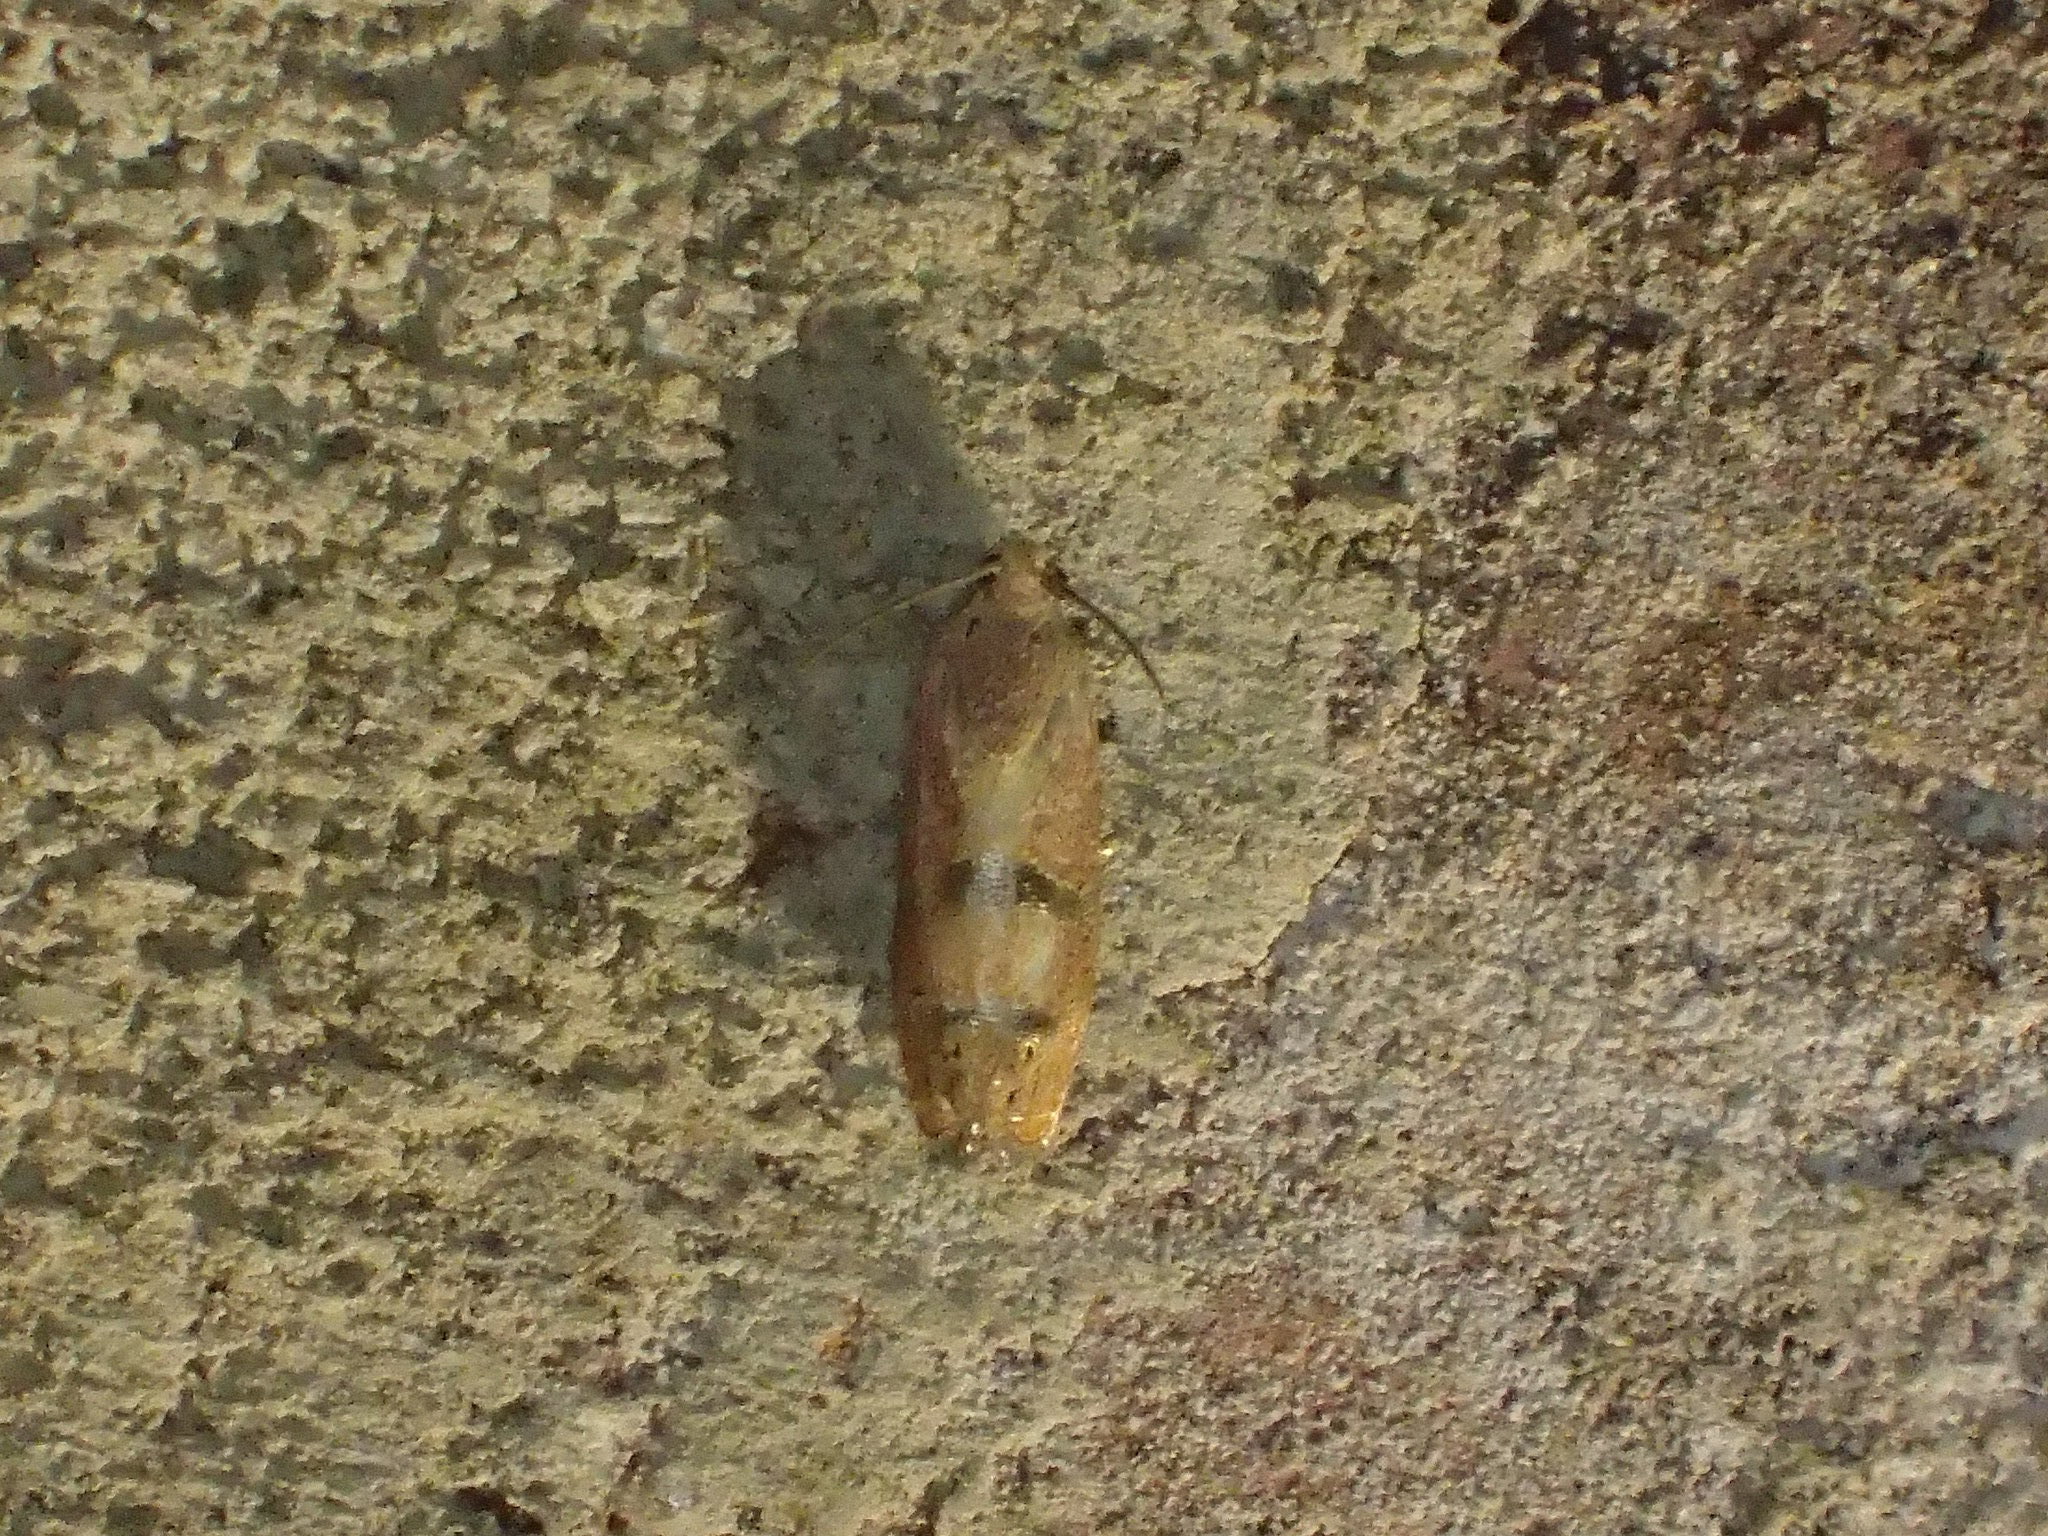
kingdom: Animalia
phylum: Arthropoda
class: Insecta
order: Lepidoptera
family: Tortricidae
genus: Cydia
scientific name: Cydia latiferreana
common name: Filbertworm moth
